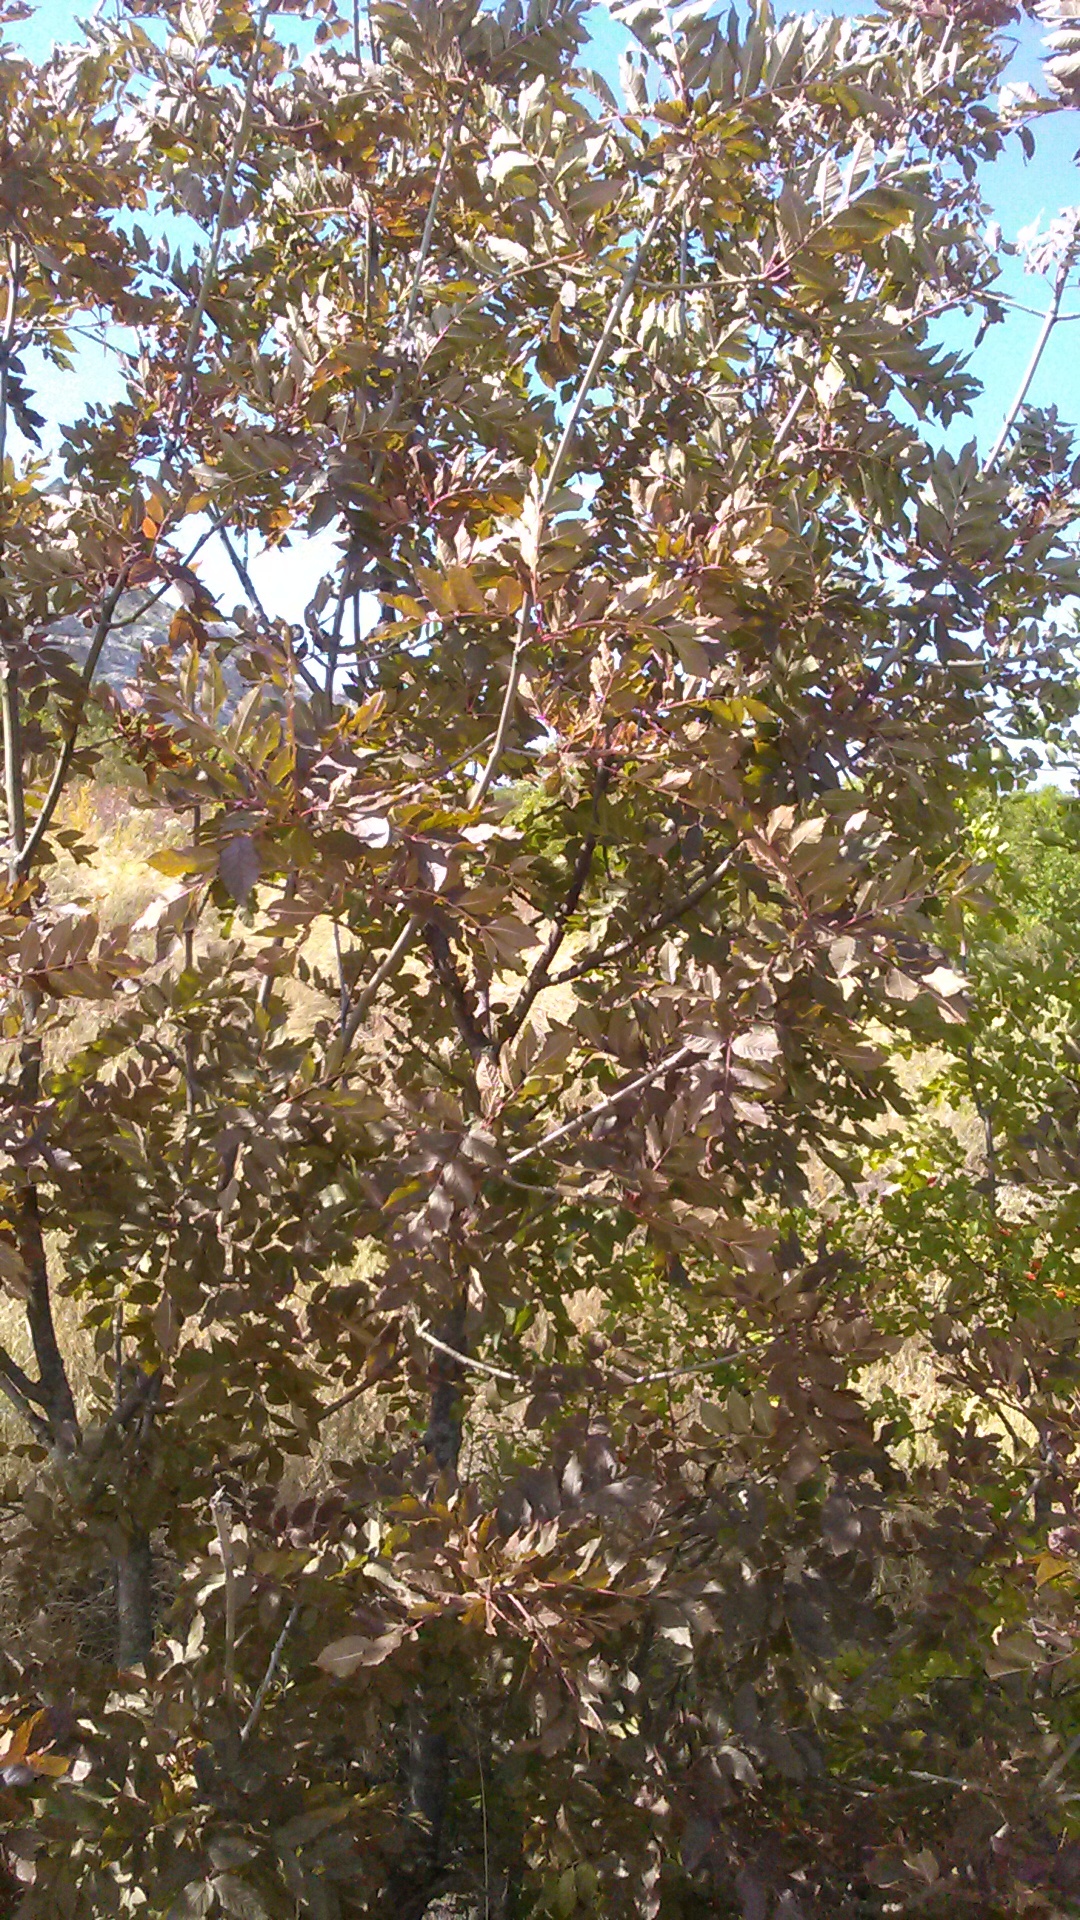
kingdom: Plantae
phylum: Tracheophyta
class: Magnoliopsida
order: Lamiales
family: Oleaceae
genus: Fraxinus
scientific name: Fraxinus excelsior
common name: European ash
